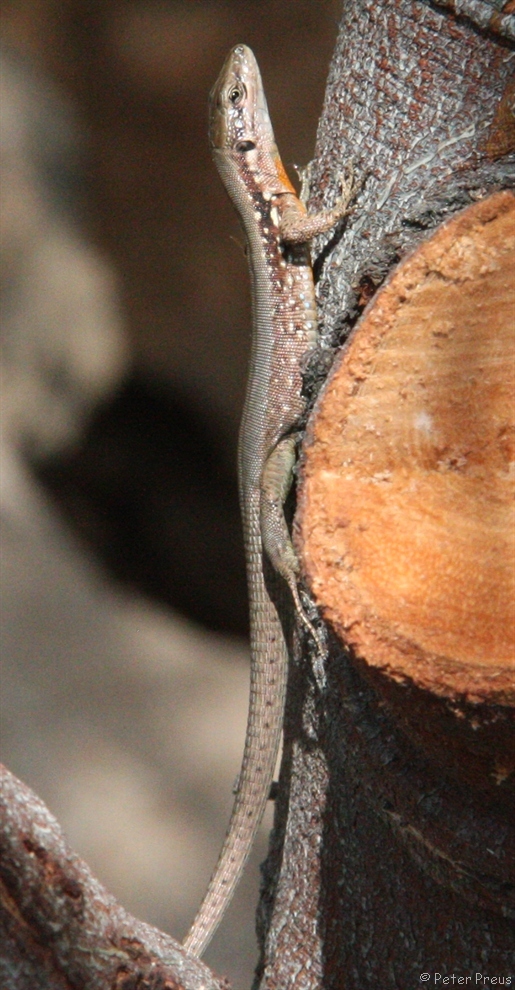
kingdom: Animalia
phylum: Chordata
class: Squamata
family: Lacertidae
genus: Phoenicolacerta
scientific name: Phoenicolacerta laevis
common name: Lebanon lizard
